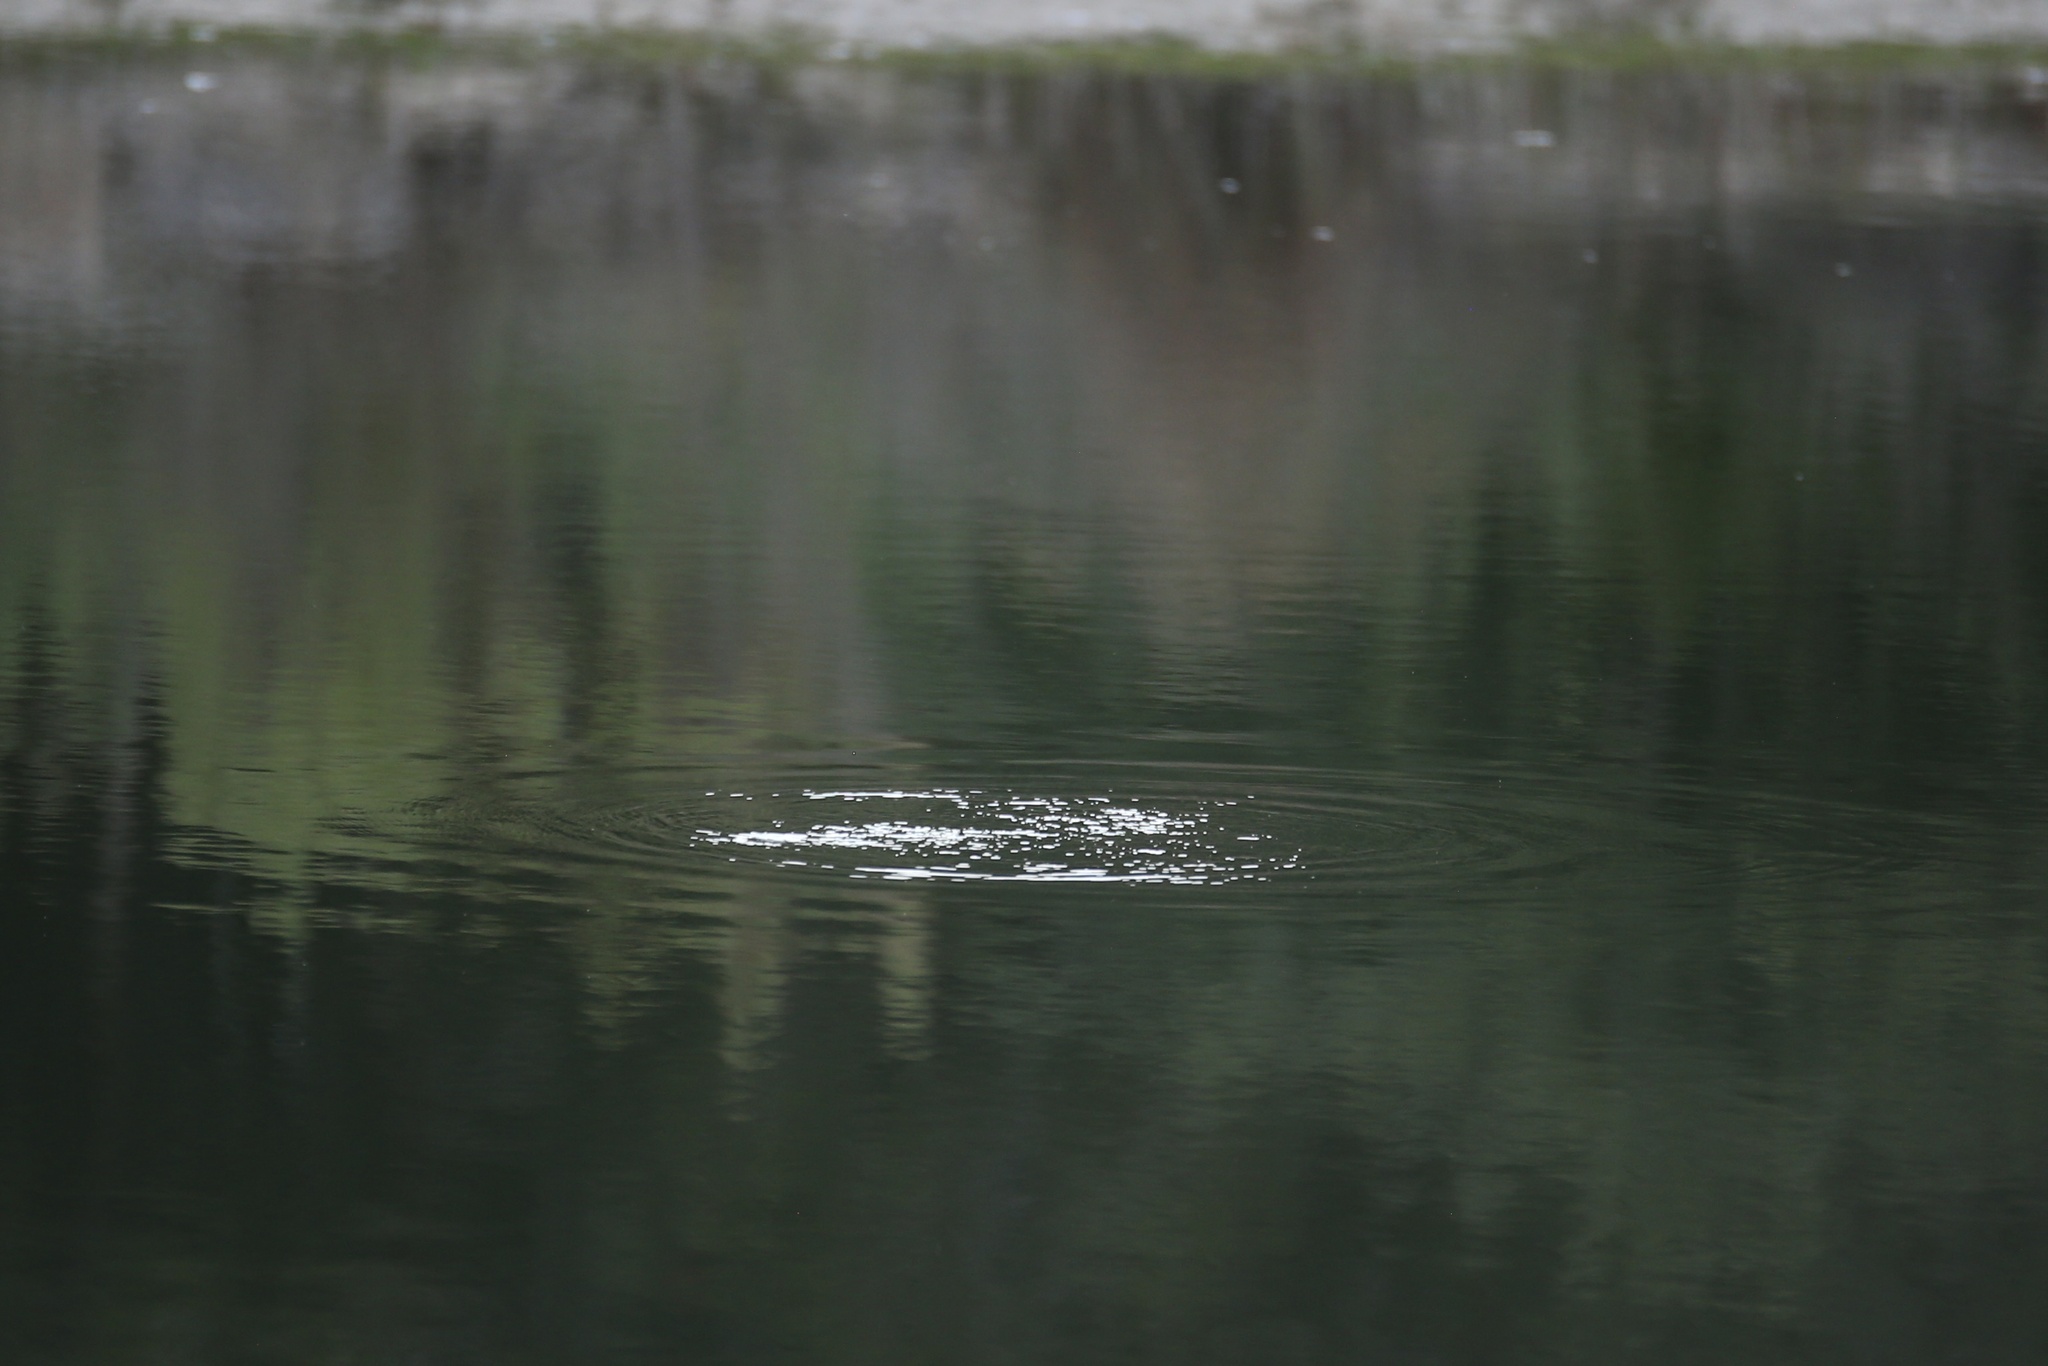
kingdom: Animalia
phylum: Chordata
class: Testudines
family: Trionychidae
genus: Apalone
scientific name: Apalone spinifera
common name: Spiny softshell turtle
